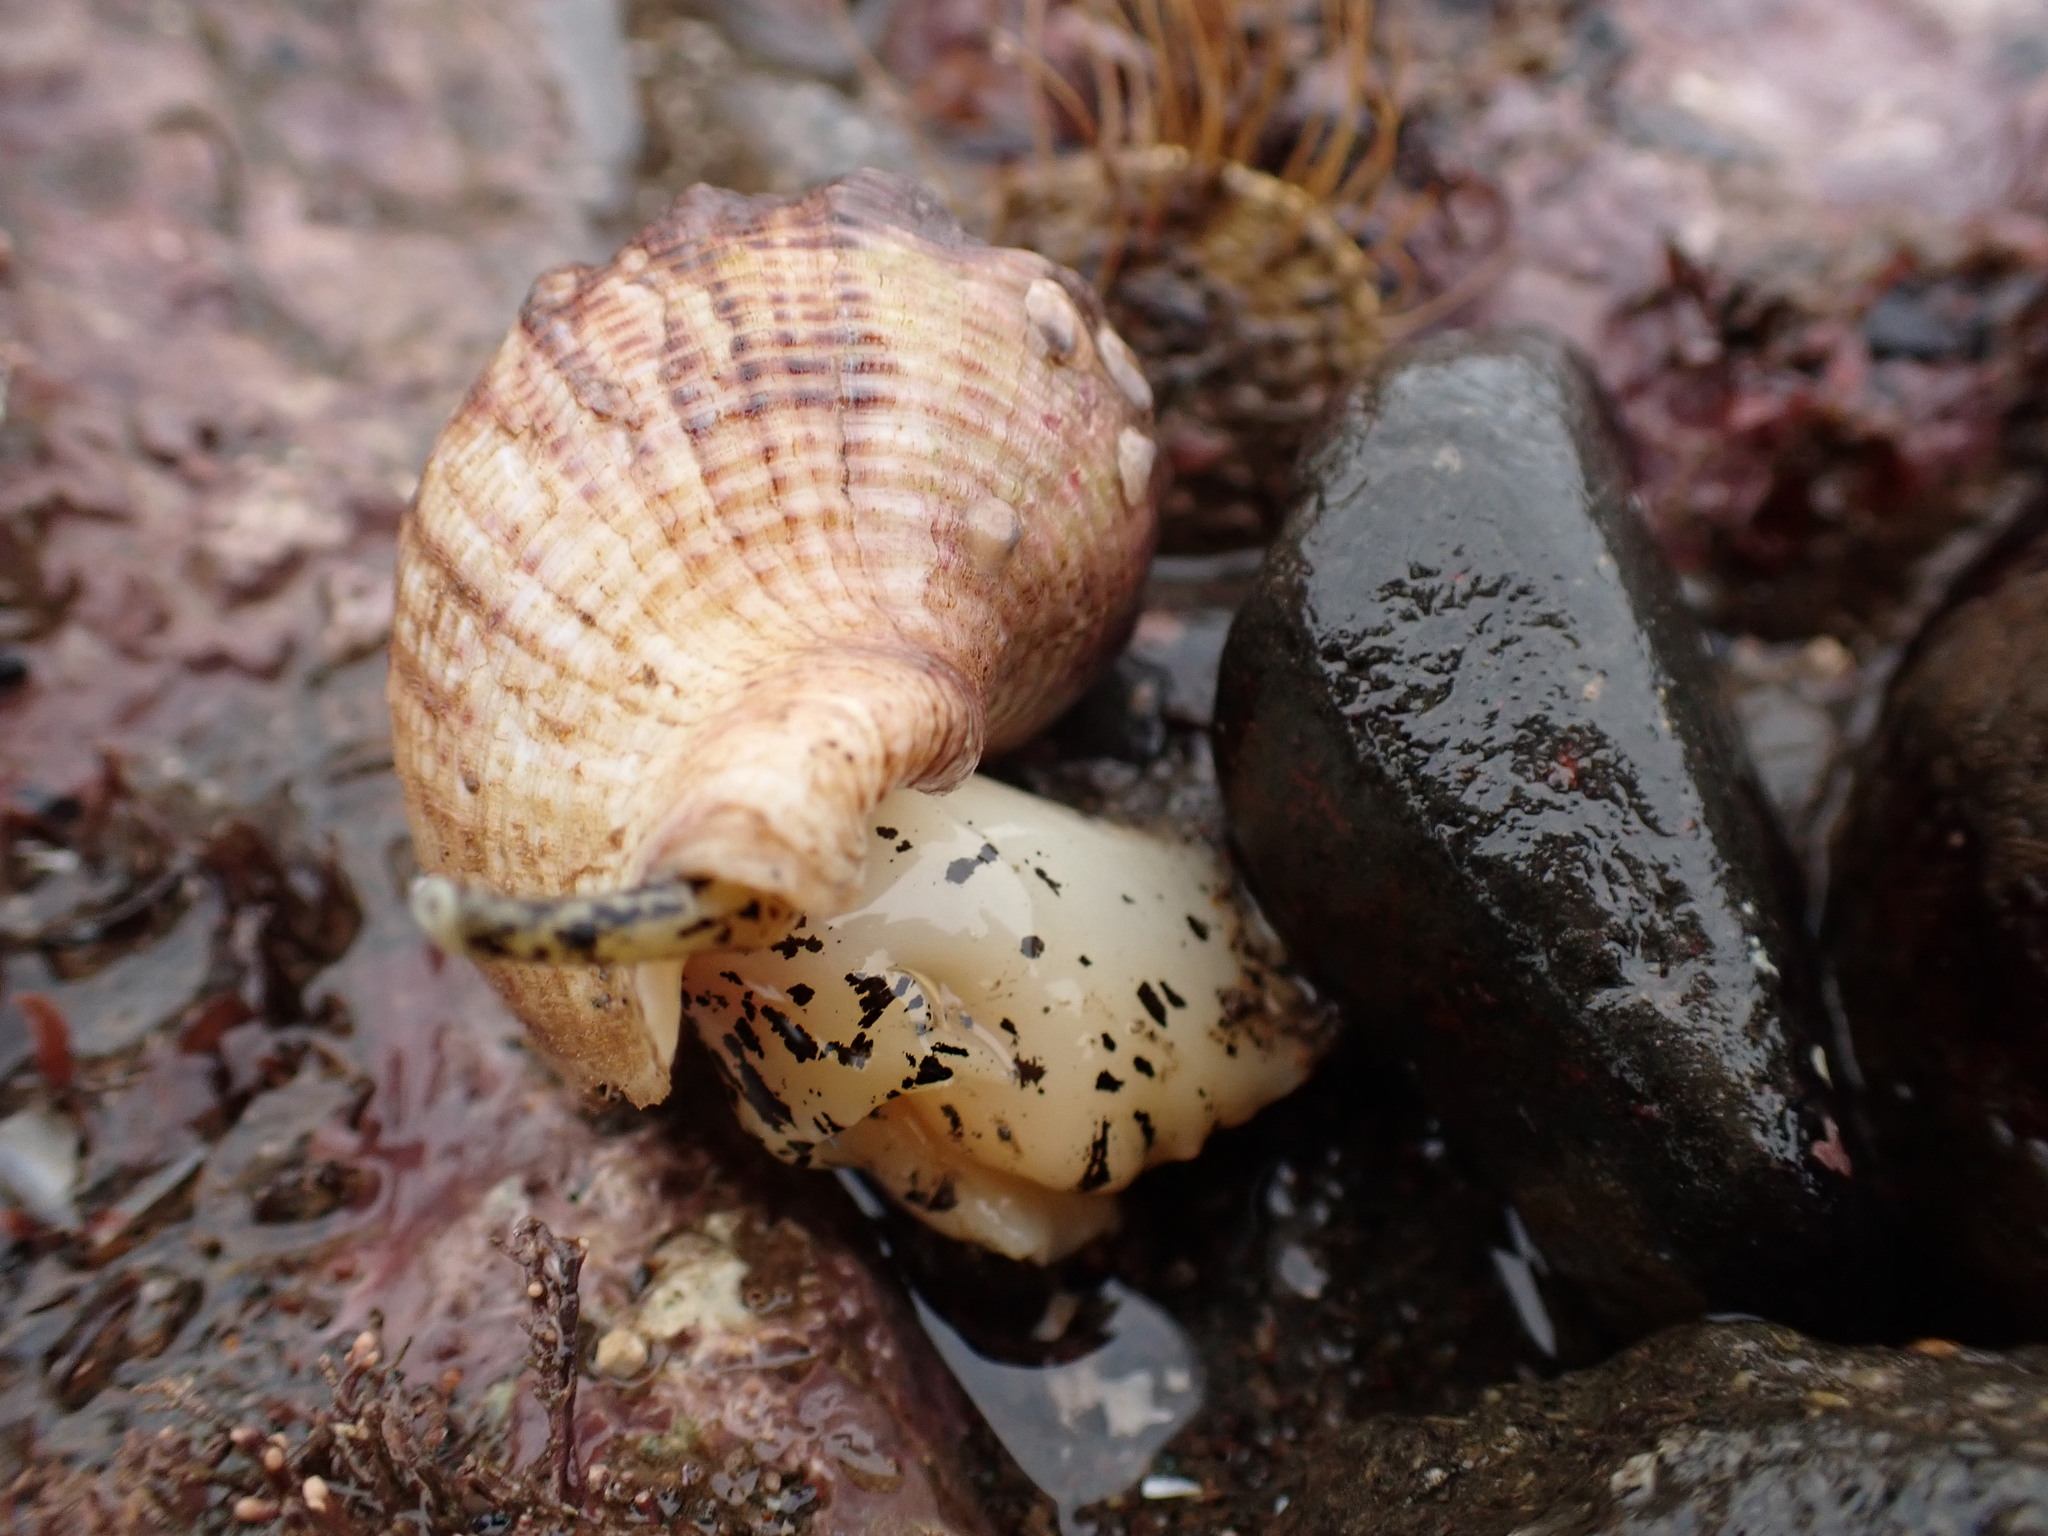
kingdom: Animalia
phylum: Mollusca
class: Gastropoda
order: Neogastropoda
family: Buccinidae
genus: Buccinum
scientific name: Buccinum undatum
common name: Common whelk
